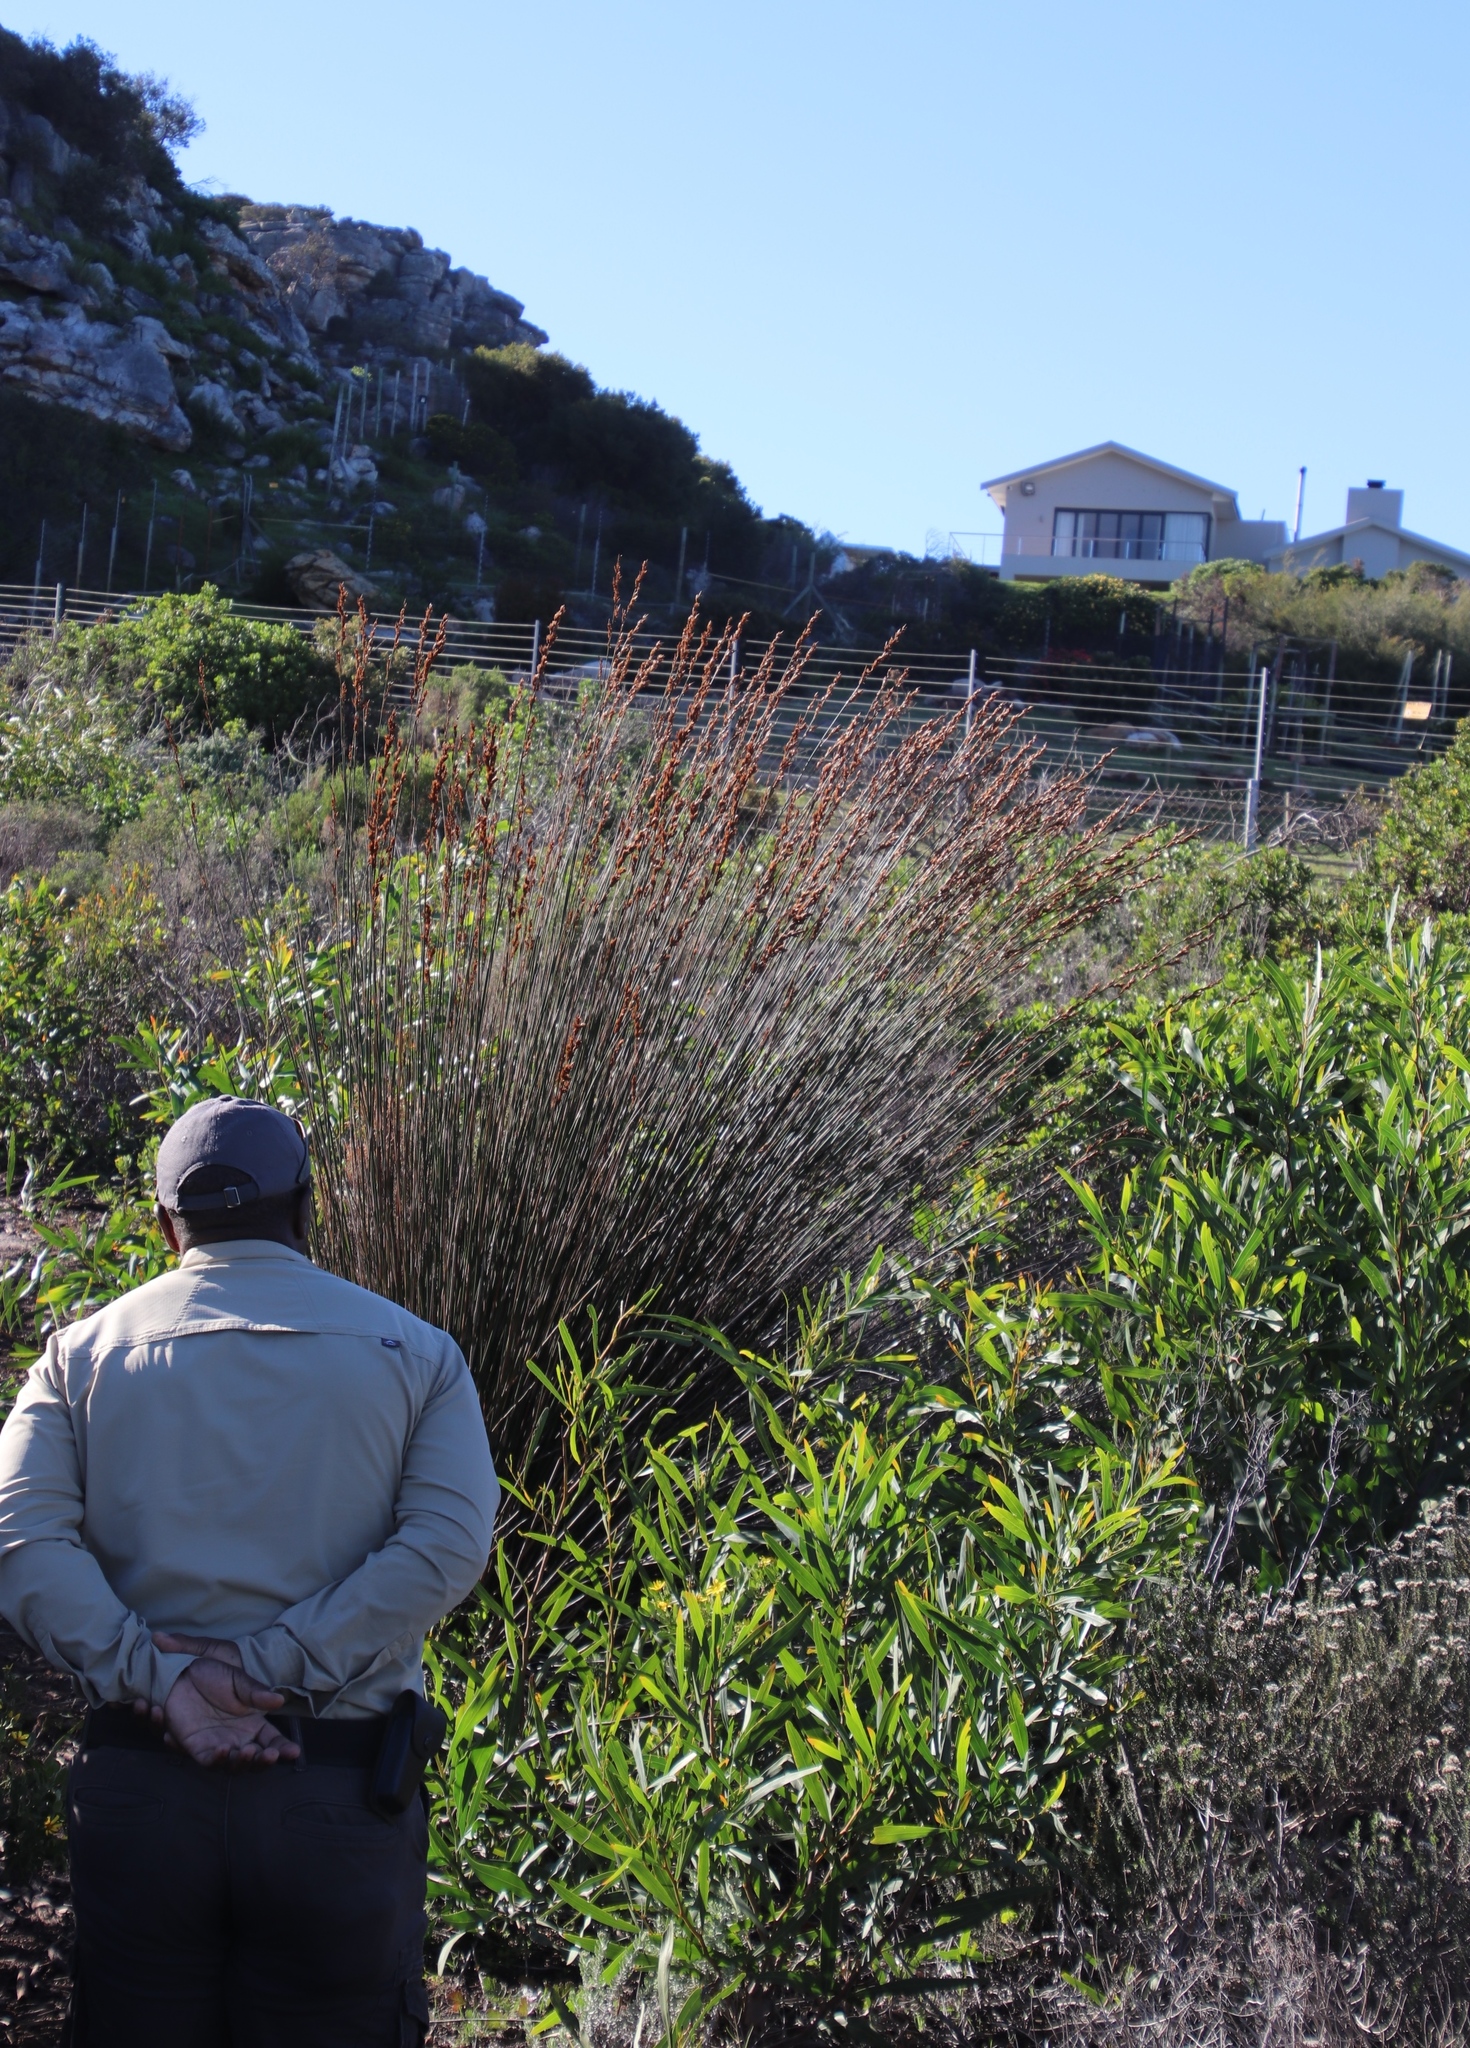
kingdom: Plantae
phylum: Tracheophyta
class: Liliopsida
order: Poales
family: Restionaceae
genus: Thamnochortus
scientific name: Thamnochortus insignis
